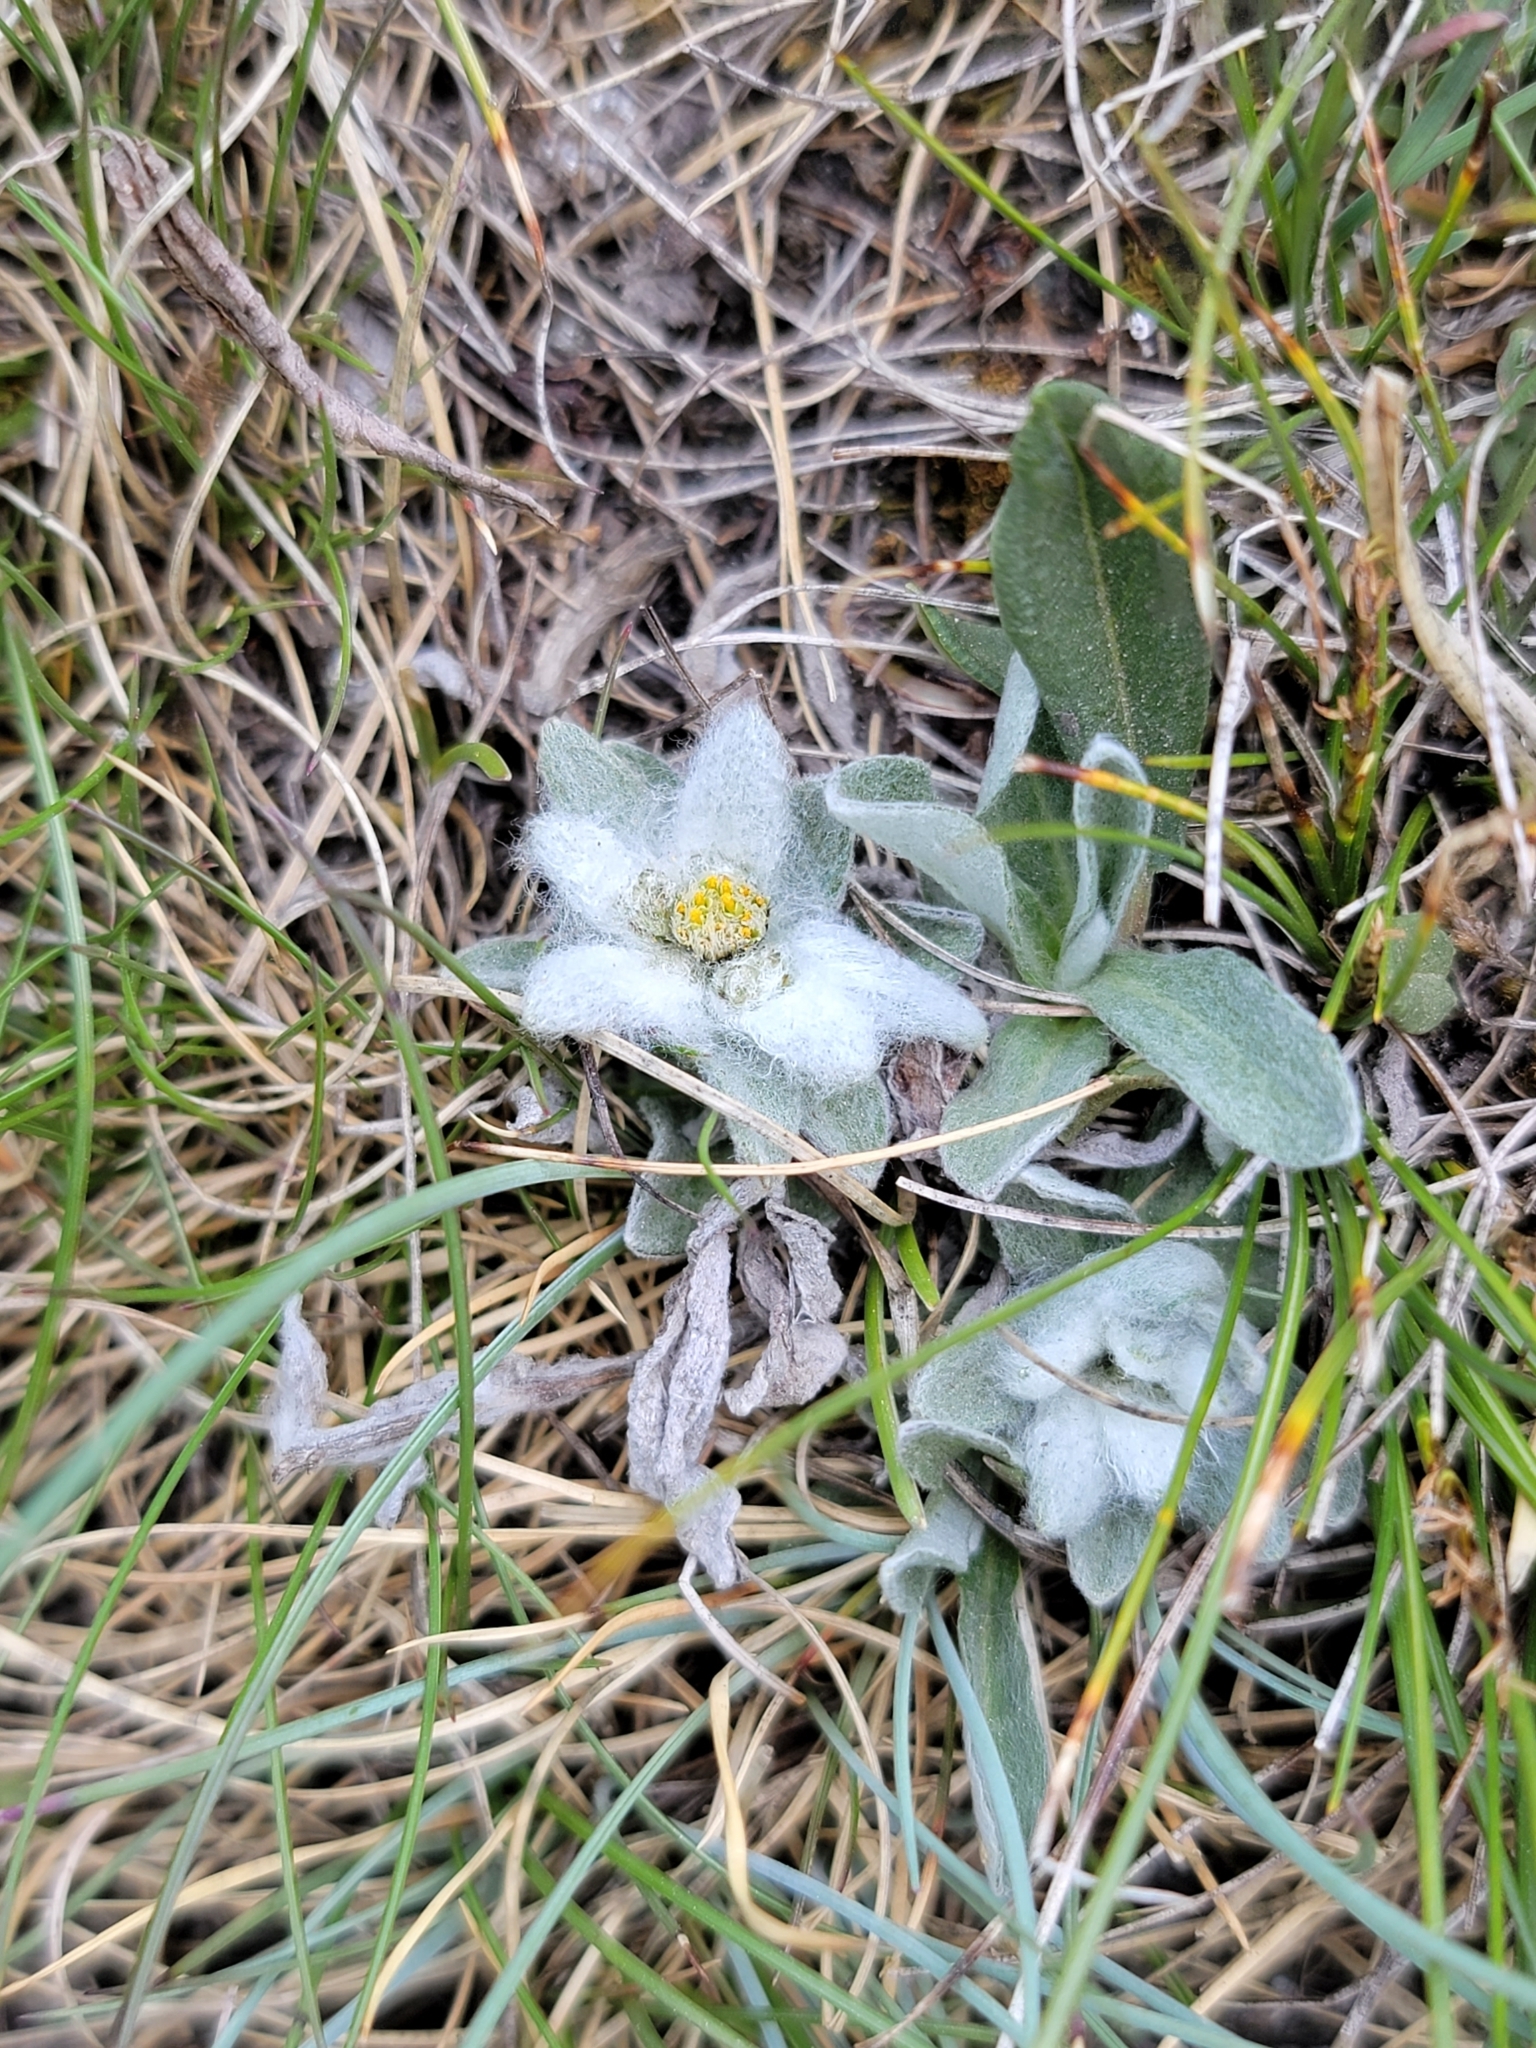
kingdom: Plantae
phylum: Tracheophyta
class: Magnoliopsida
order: Asterales
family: Asteraceae
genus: Leontopodium
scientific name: Leontopodium nivale
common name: Edelweiss
